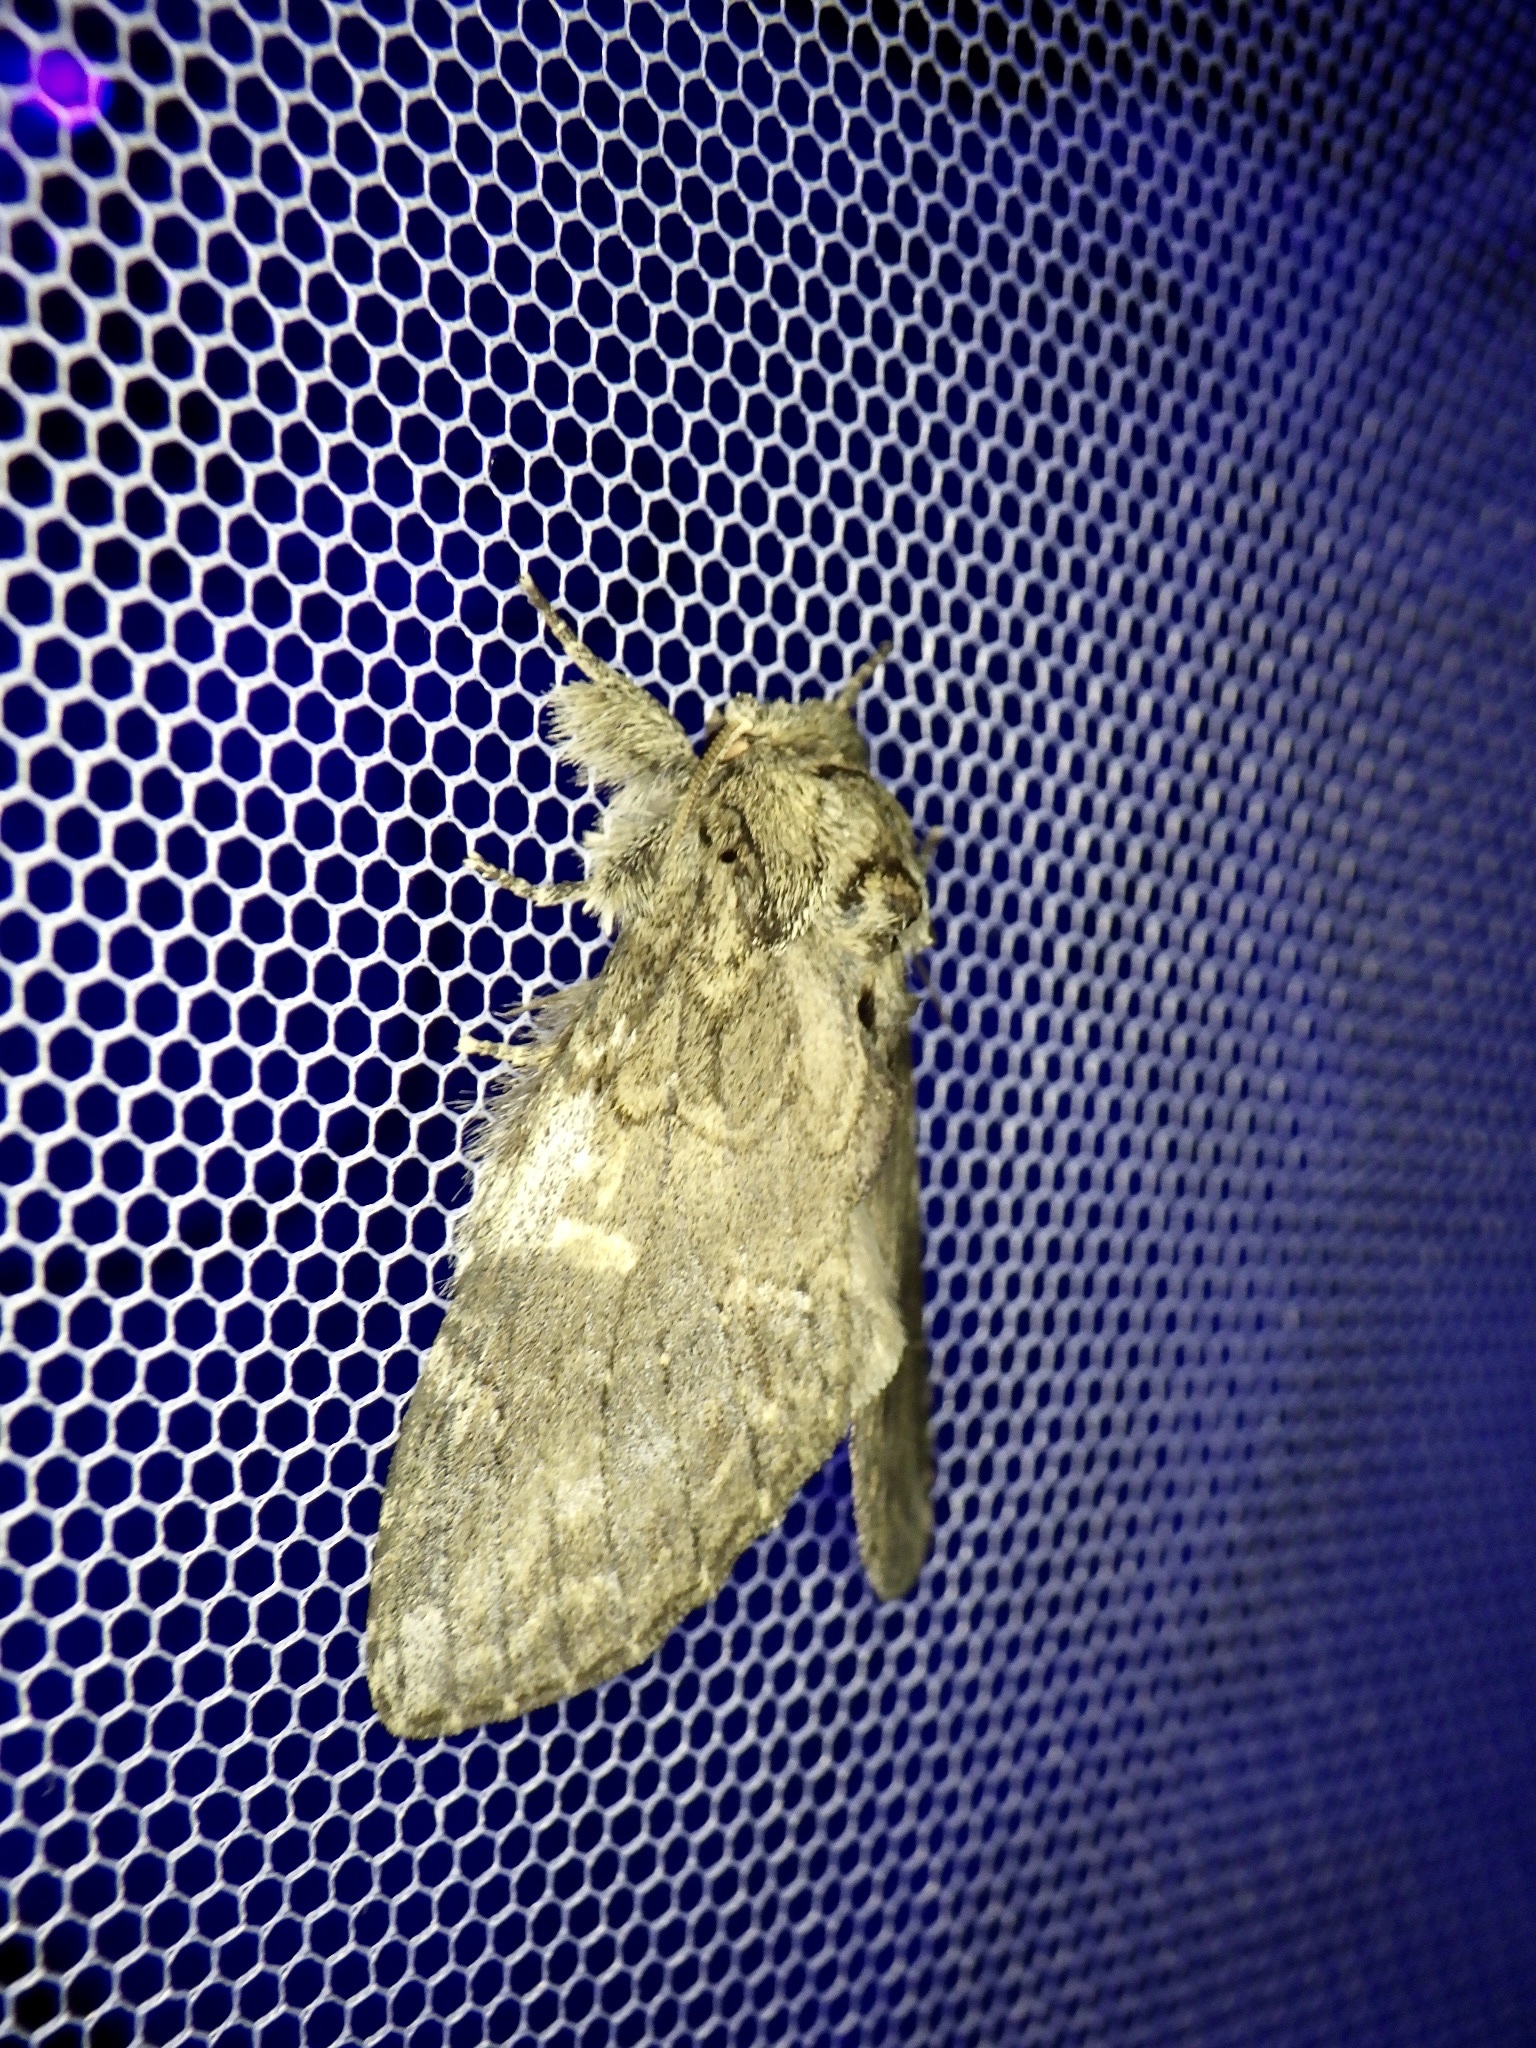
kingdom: Animalia
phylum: Arthropoda
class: Insecta
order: Lepidoptera
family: Notodontidae
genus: Peridea
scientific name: Peridea gigantea
